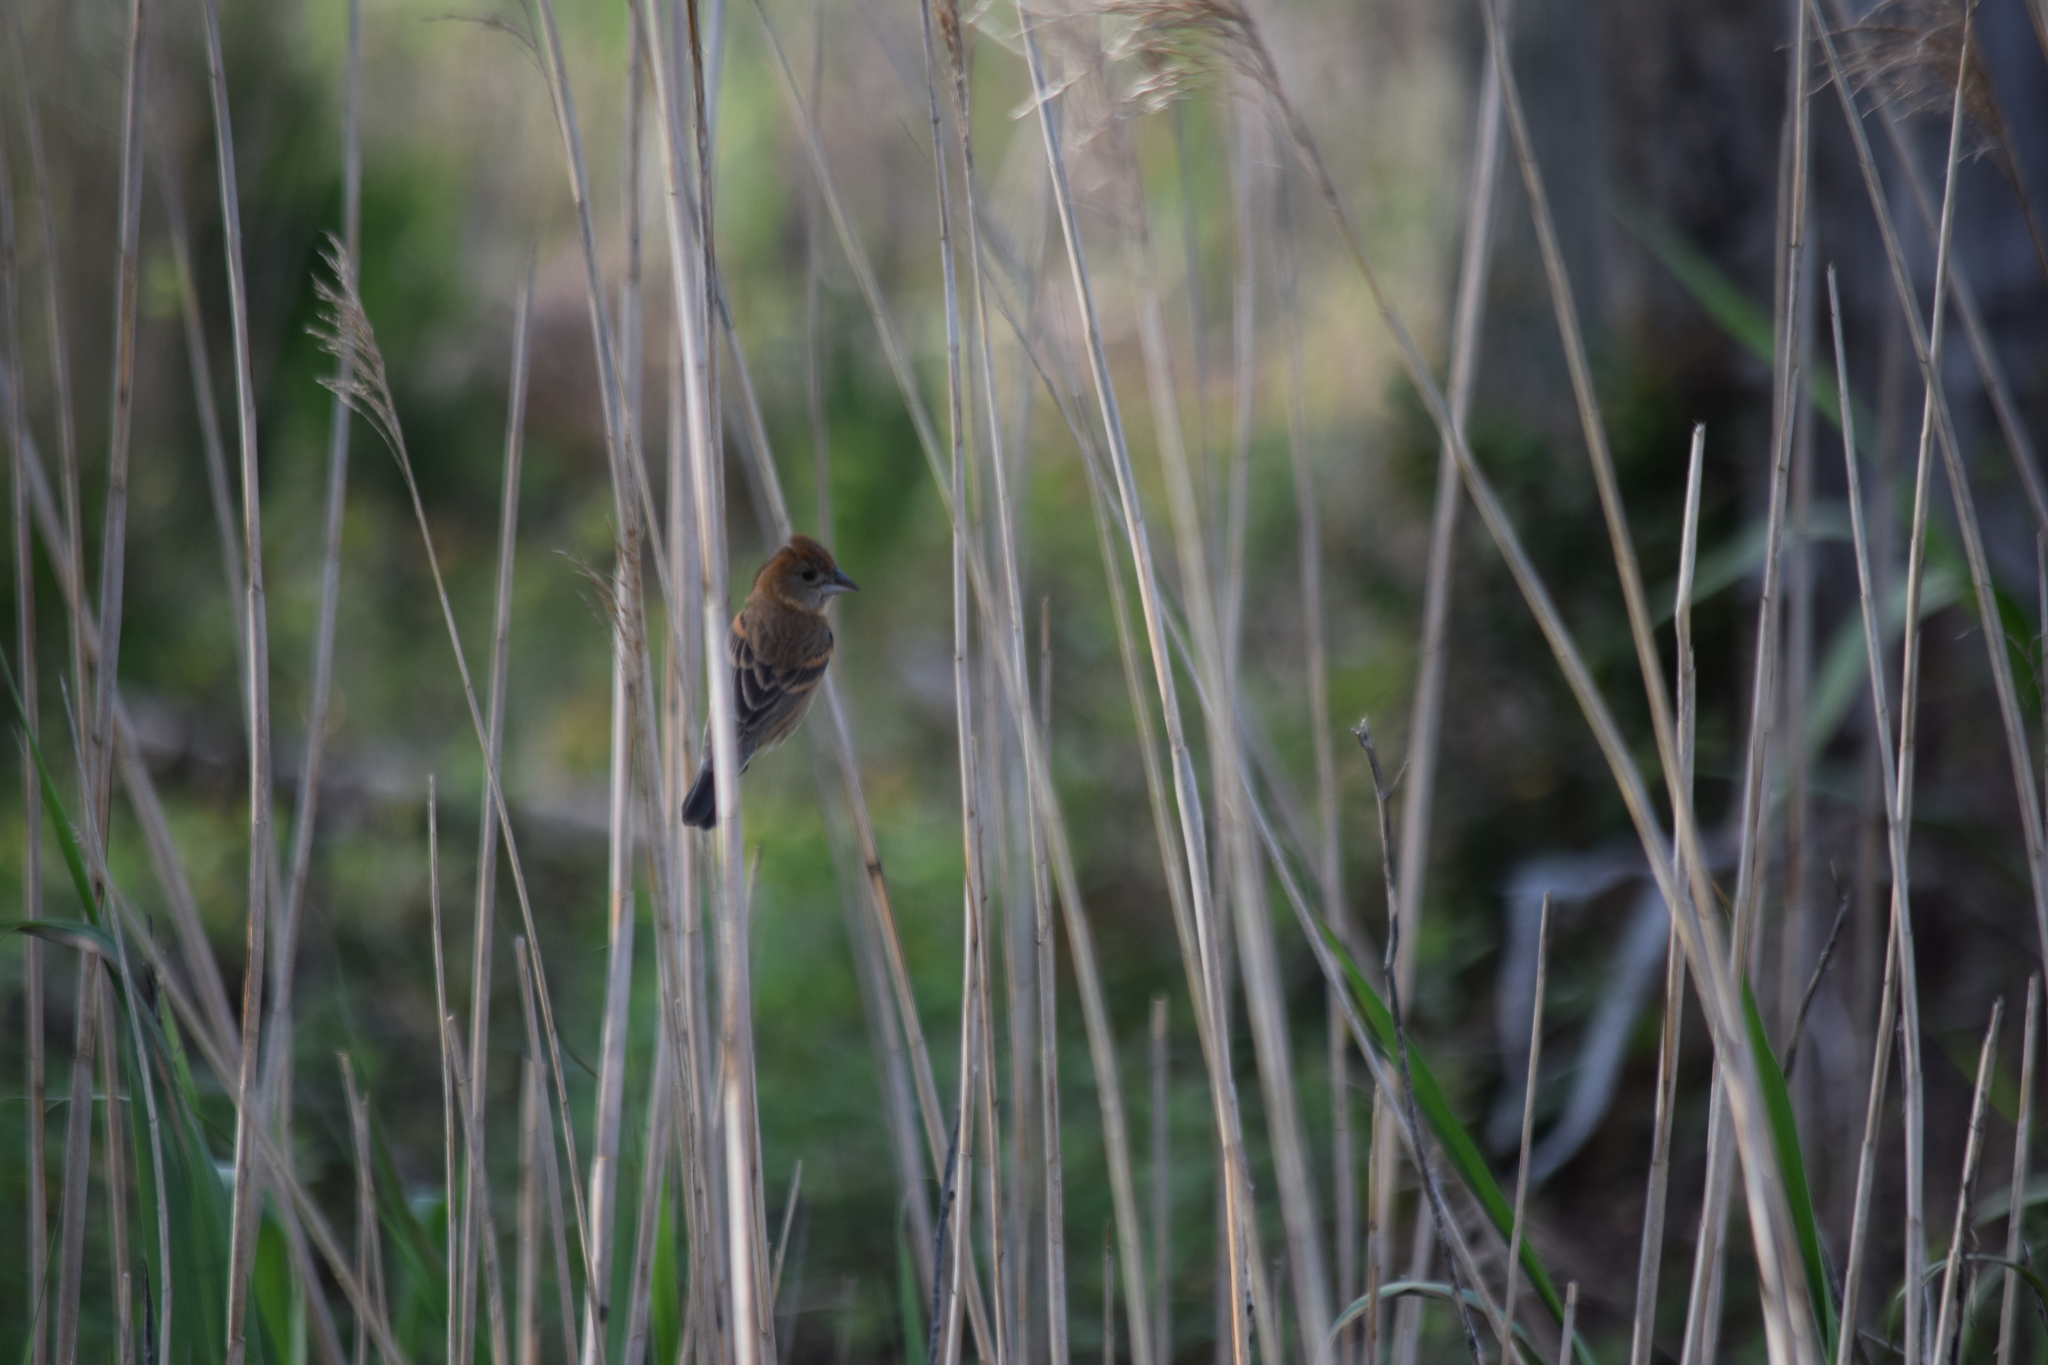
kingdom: Animalia
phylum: Chordata
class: Aves
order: Passeriformes
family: Cardinalidae
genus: Passerina
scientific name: Passerina caerulea
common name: Blue grosbeak
